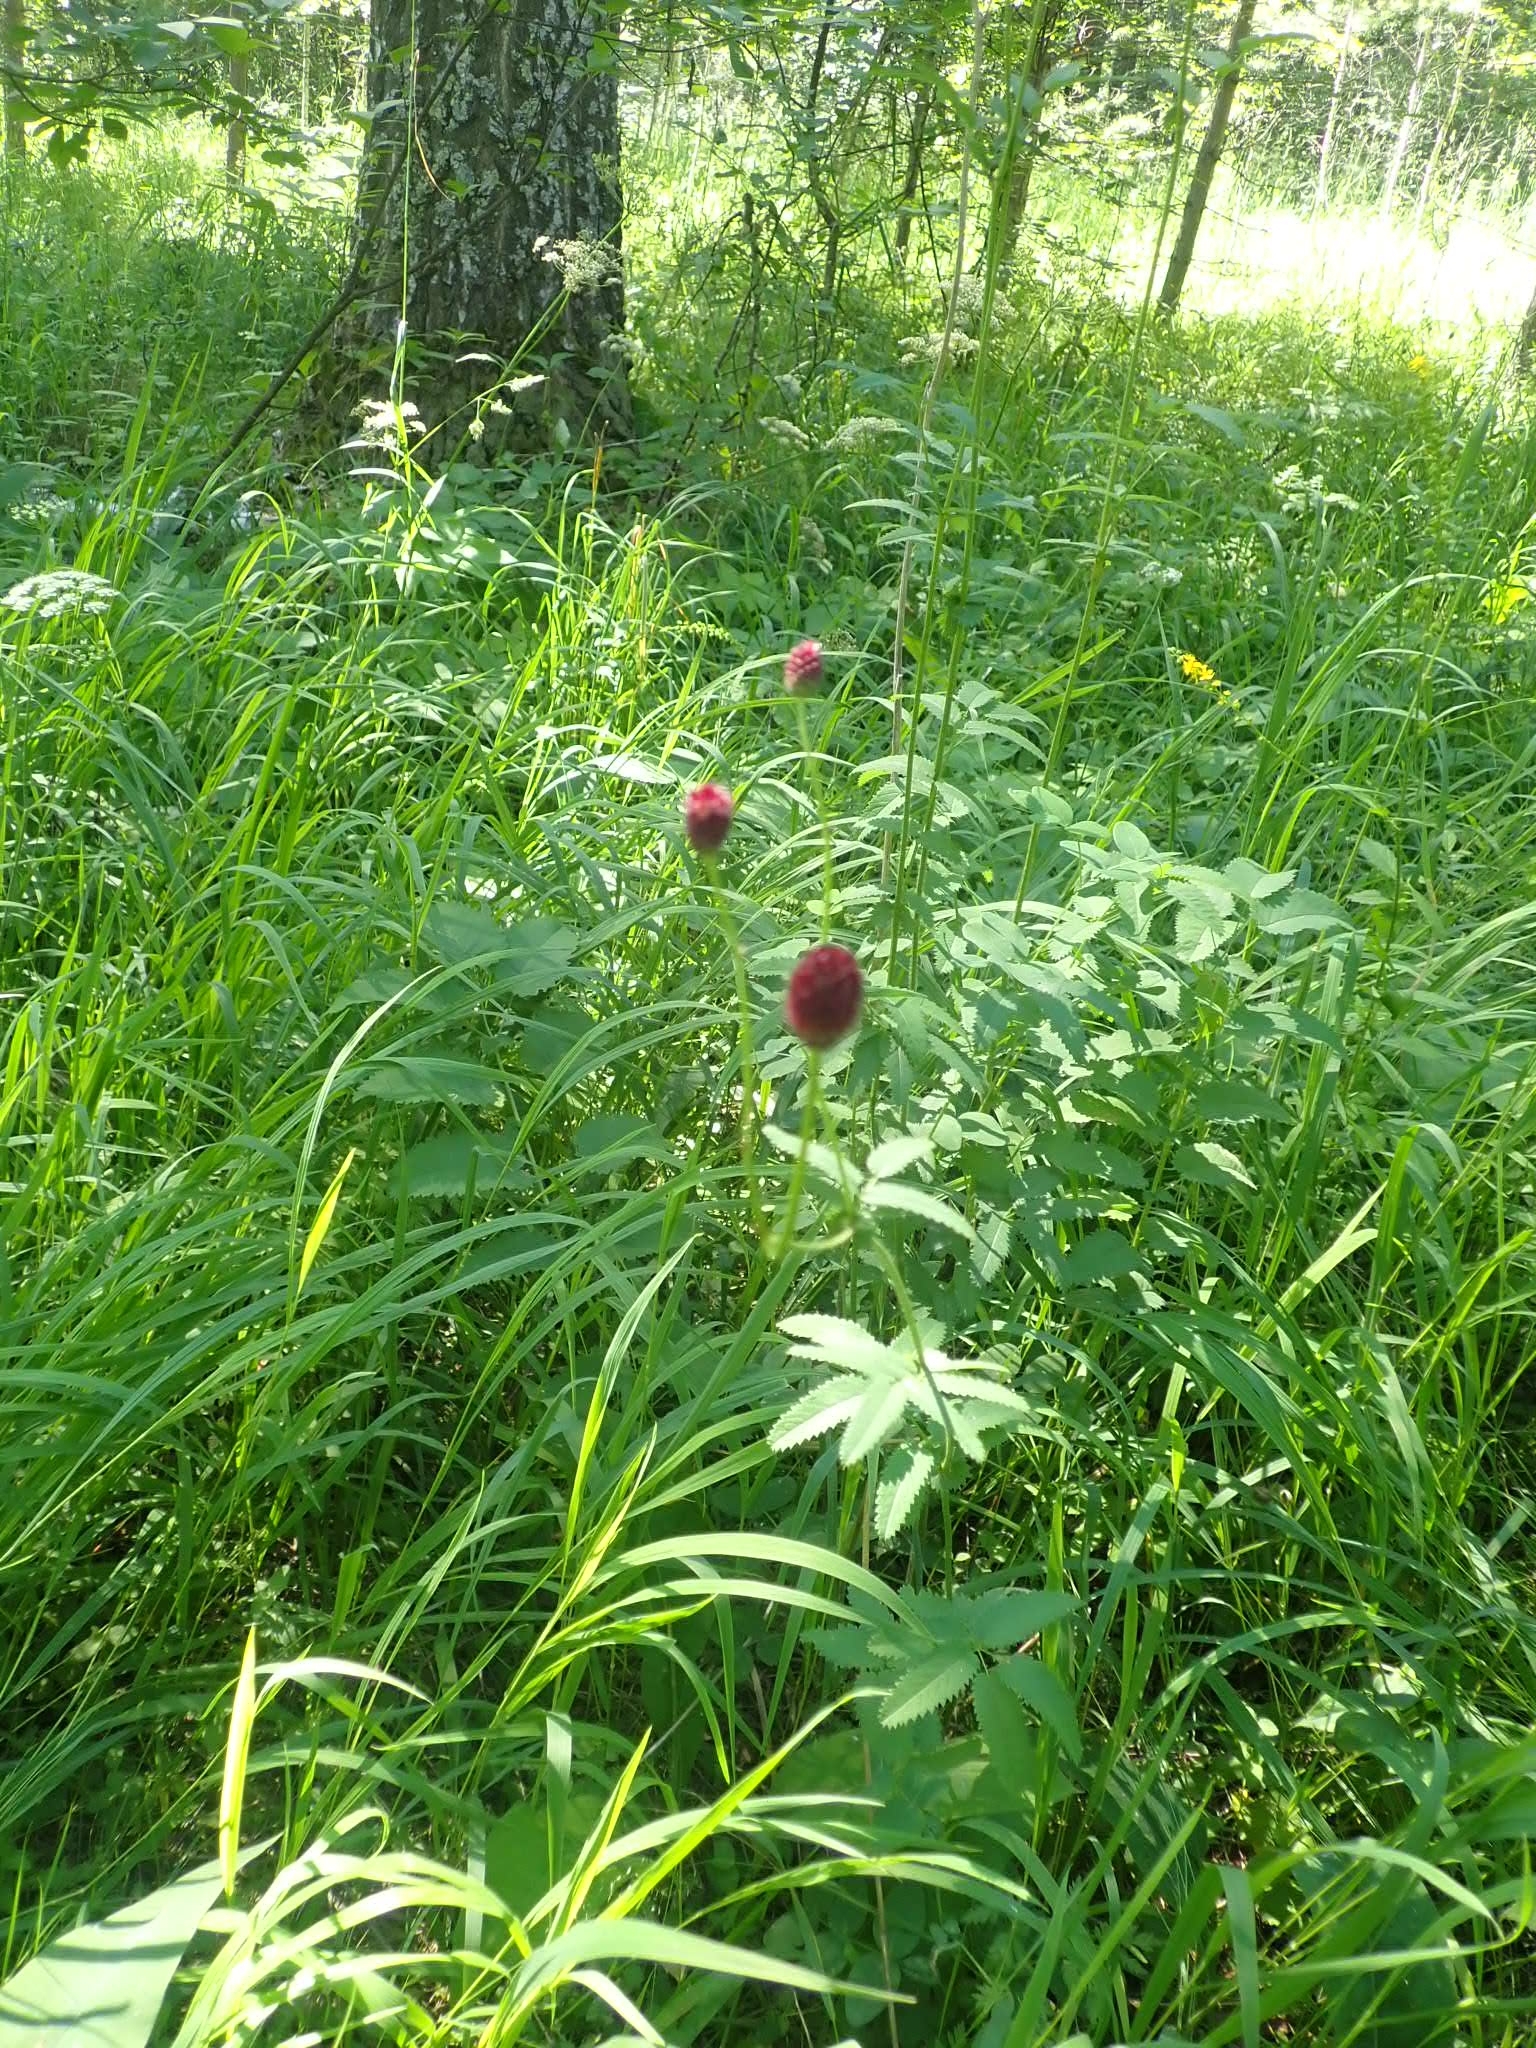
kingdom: Plantae
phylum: Tracheophyta
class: Magnoliopsida
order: Rosales
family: Rosaceae
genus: Sanguisorba
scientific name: Sanguisorba officinalis
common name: Great burnet
